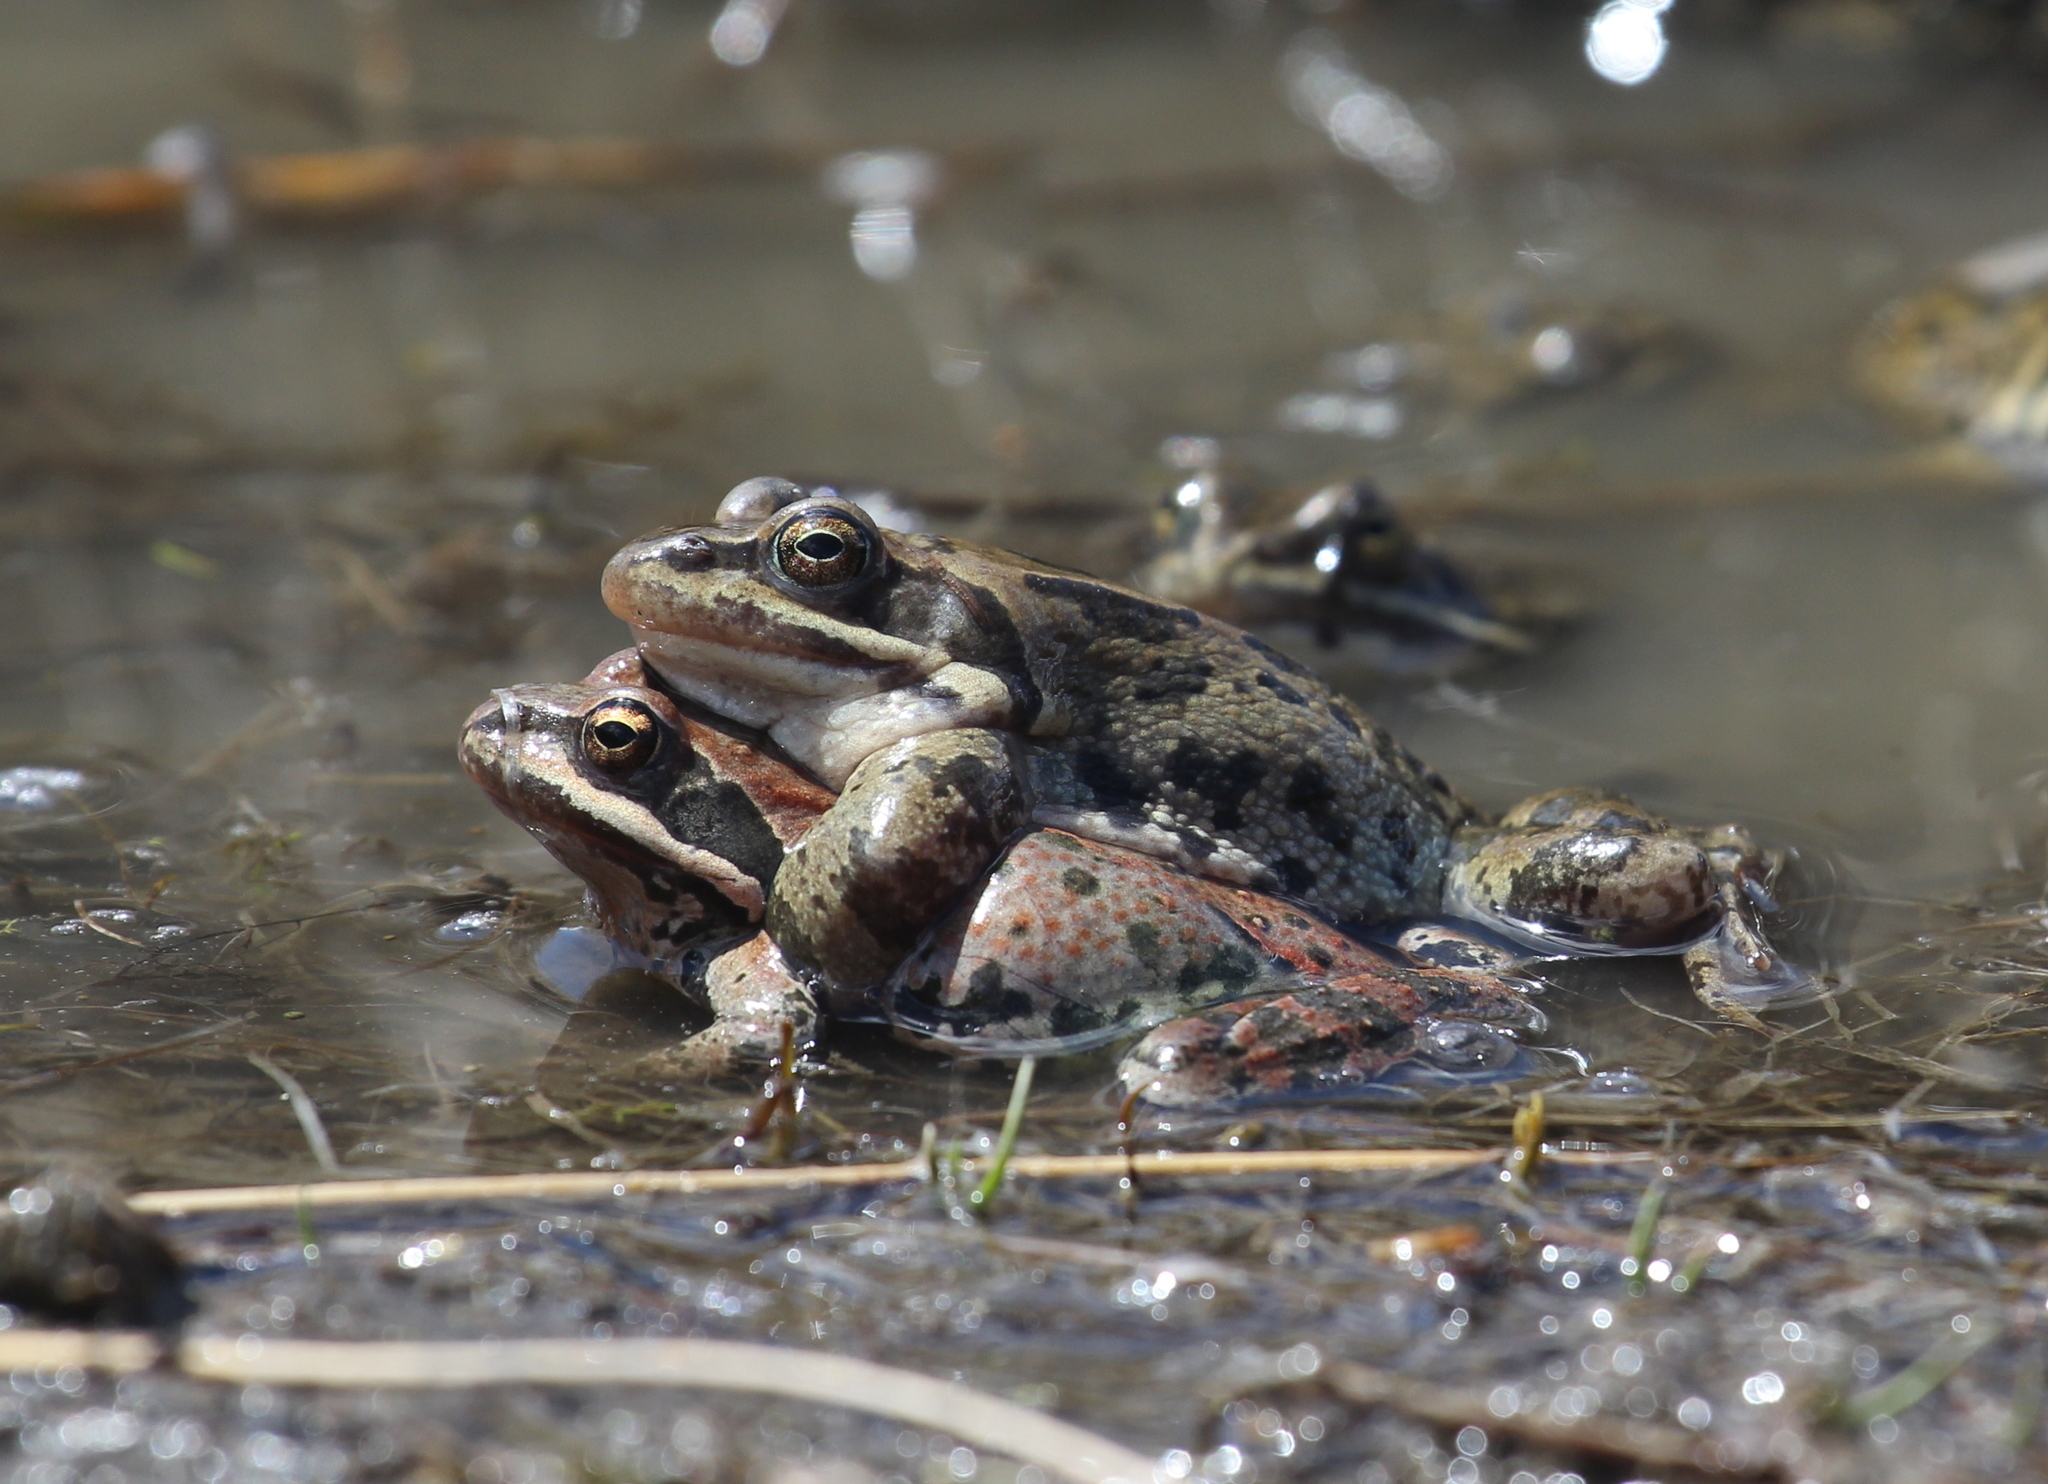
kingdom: Animalia
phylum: Chordata
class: Amphibia
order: Anura
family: Ranidae
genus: Rana
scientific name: Rana macrocnemis
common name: Banded frog
